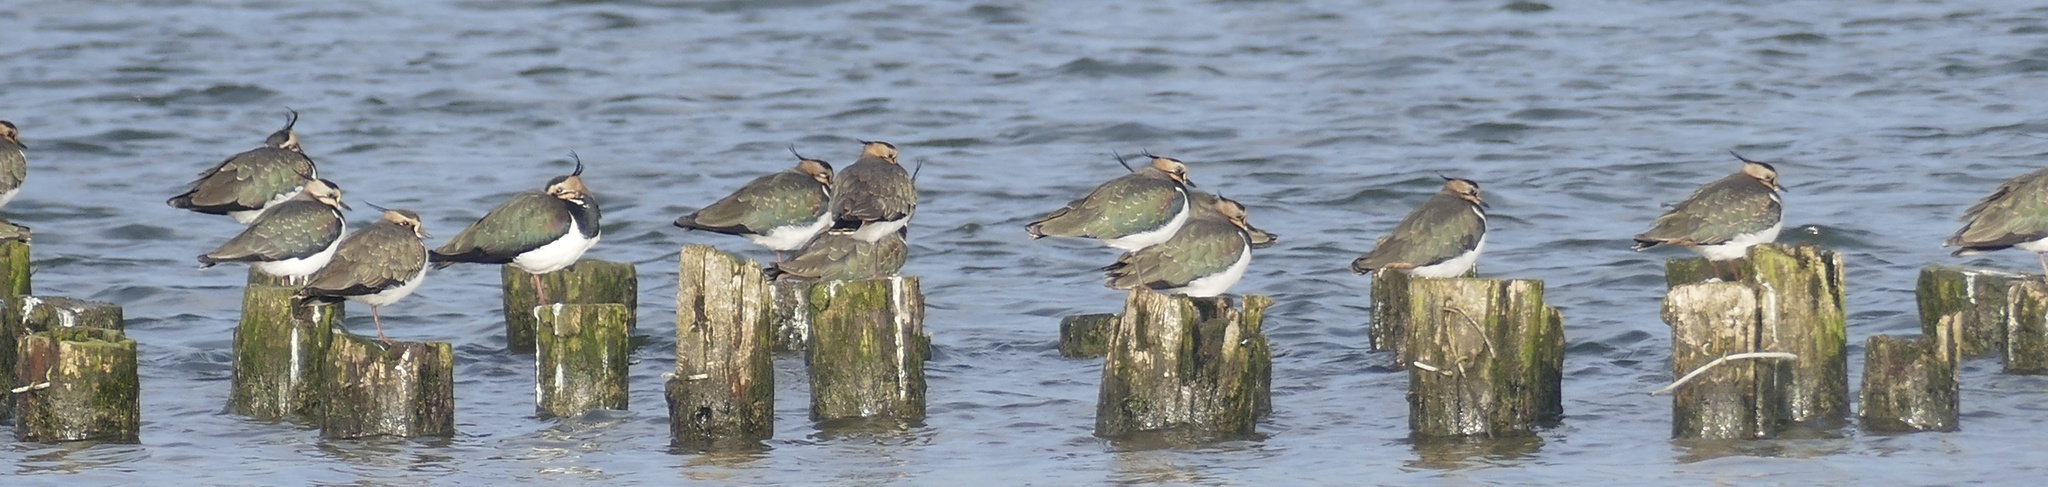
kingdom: Animalia
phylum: Chordata
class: Aves
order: Charadriiformes
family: Charadriidae
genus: Vanellus
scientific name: Vanellus vanellus
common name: Northern lapwing
